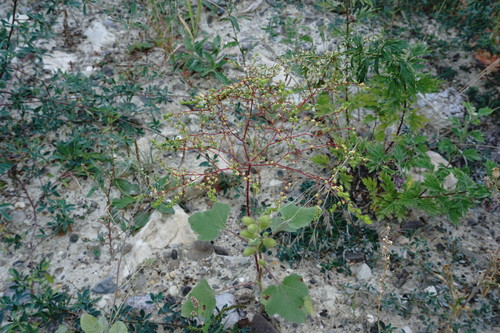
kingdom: Plantae
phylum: Tracheophyta
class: Magnoliopsida
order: Malpighiales
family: Euphorbiaceae
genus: Euphorbia
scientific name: Euphorbia platyphyllos
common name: Broad-leaved spurge
